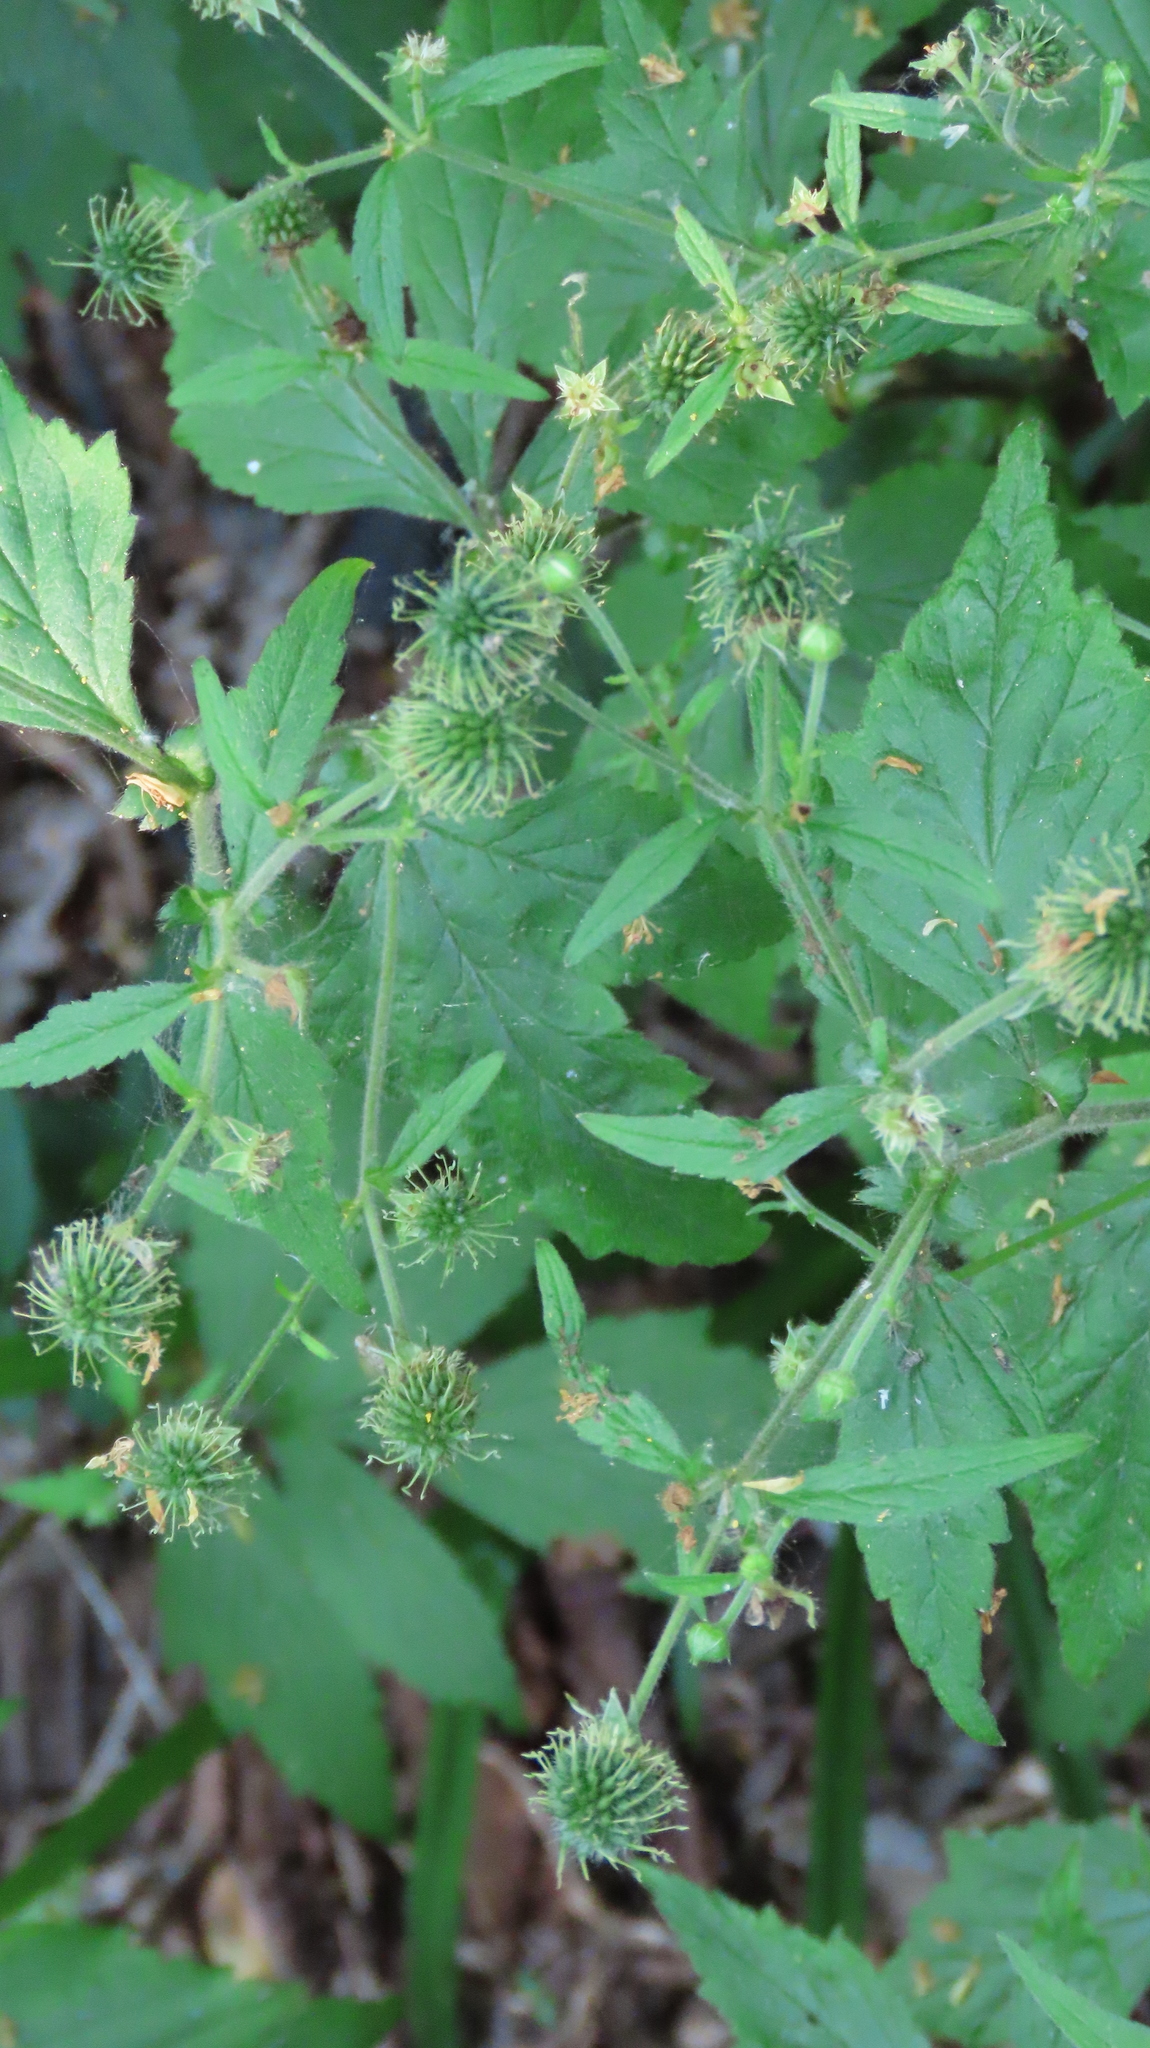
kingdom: Plantae
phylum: Tracheophyta
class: Magnoliopsida
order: Rosales
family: Rosaceae
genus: Geum
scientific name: Geum canadense
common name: White avens
